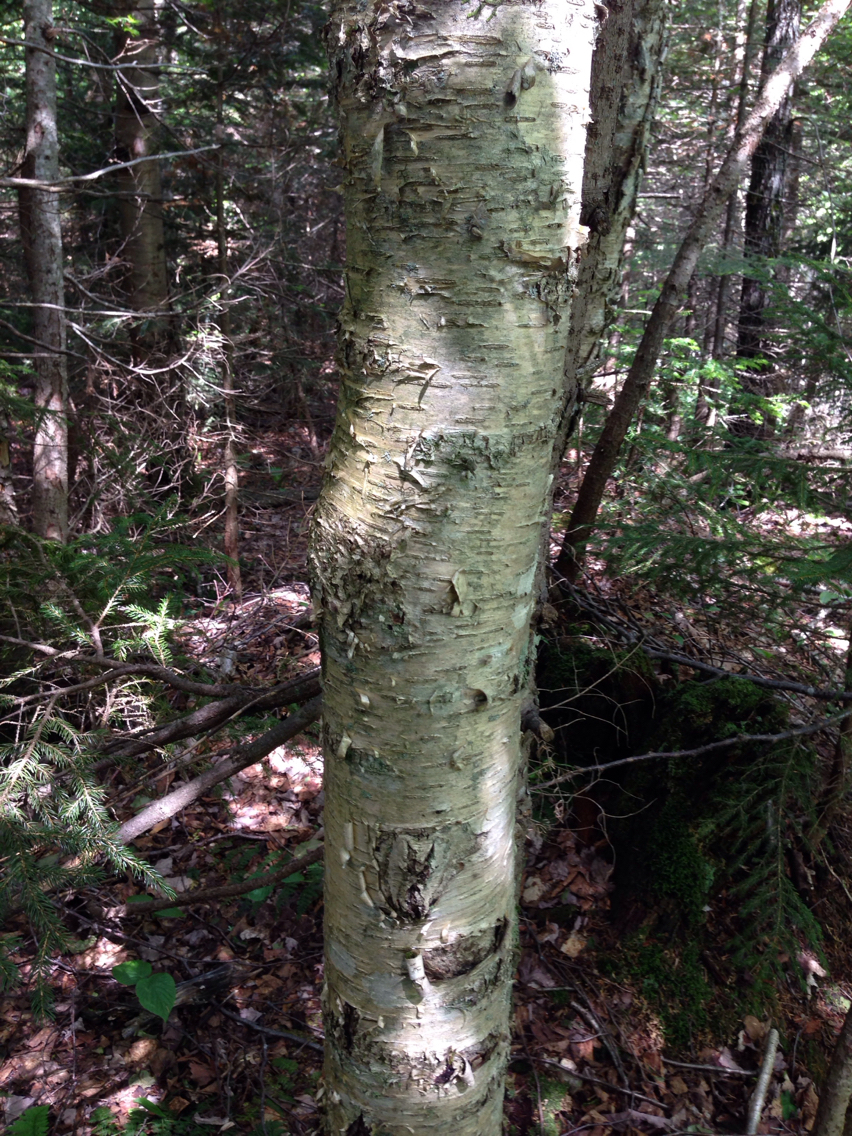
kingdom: Plantae
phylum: Tracheophyta
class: Magnoliopsida
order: Fagales
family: Betulaceae
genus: Betula
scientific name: Betula alleghaniensis
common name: Yellow birch
